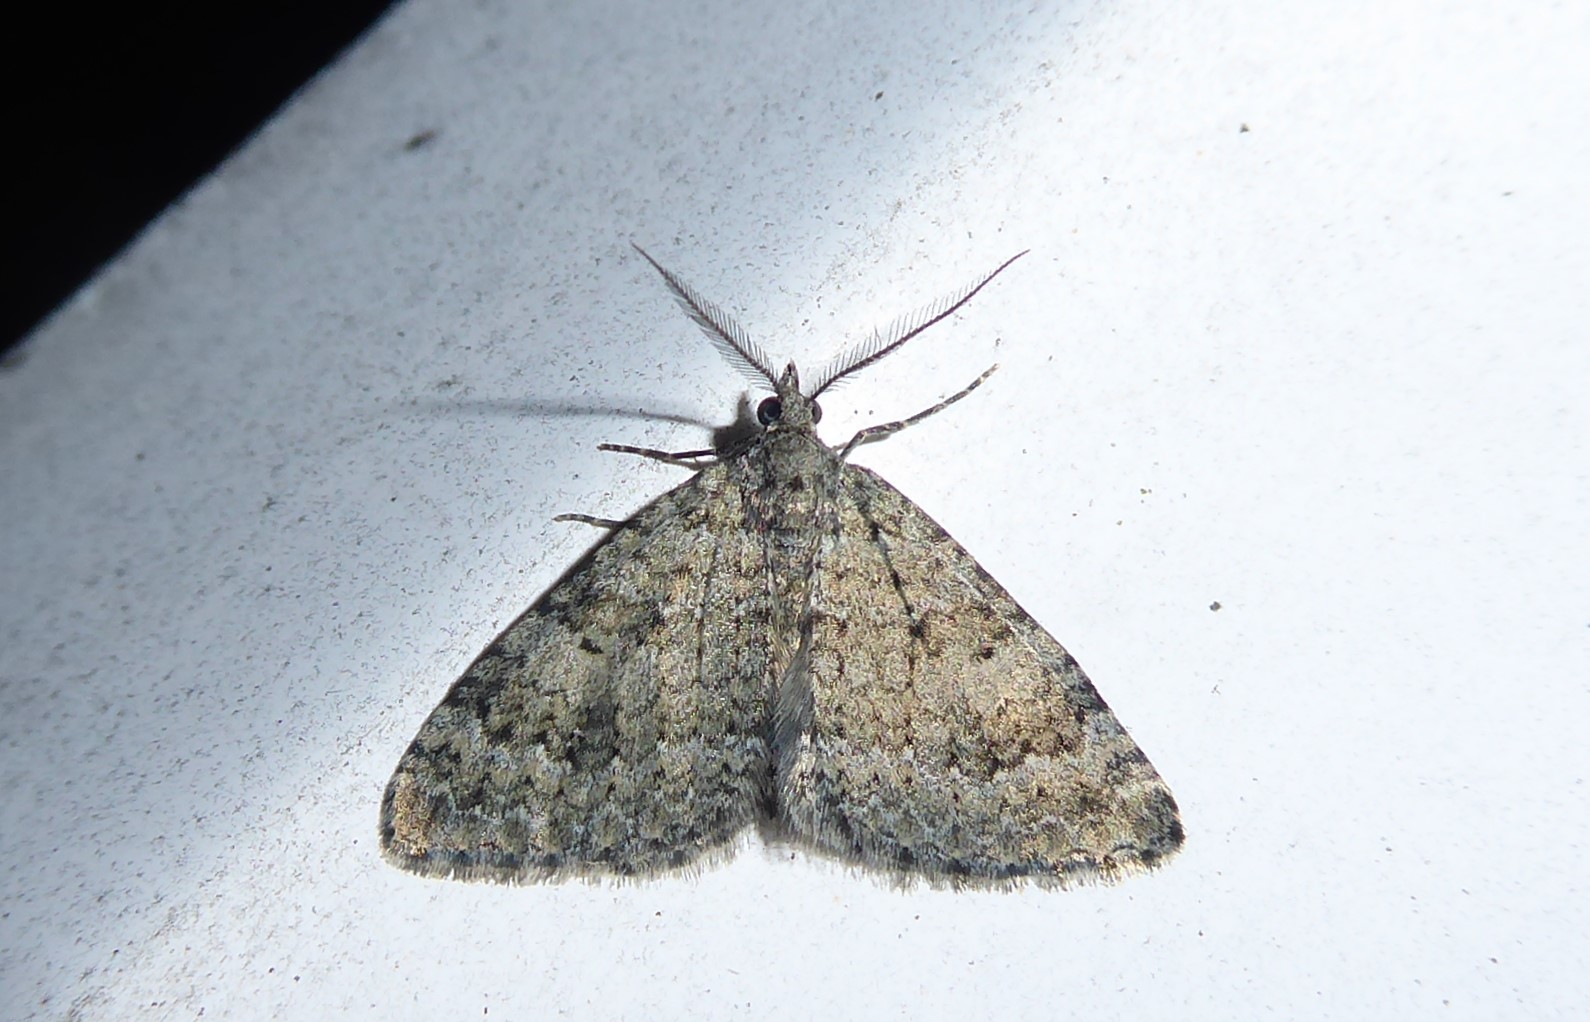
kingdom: Animalia
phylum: Arthropoda
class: Insecta
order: Lepidoptera
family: Geometridae
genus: Helastia
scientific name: Helastia corcularia
